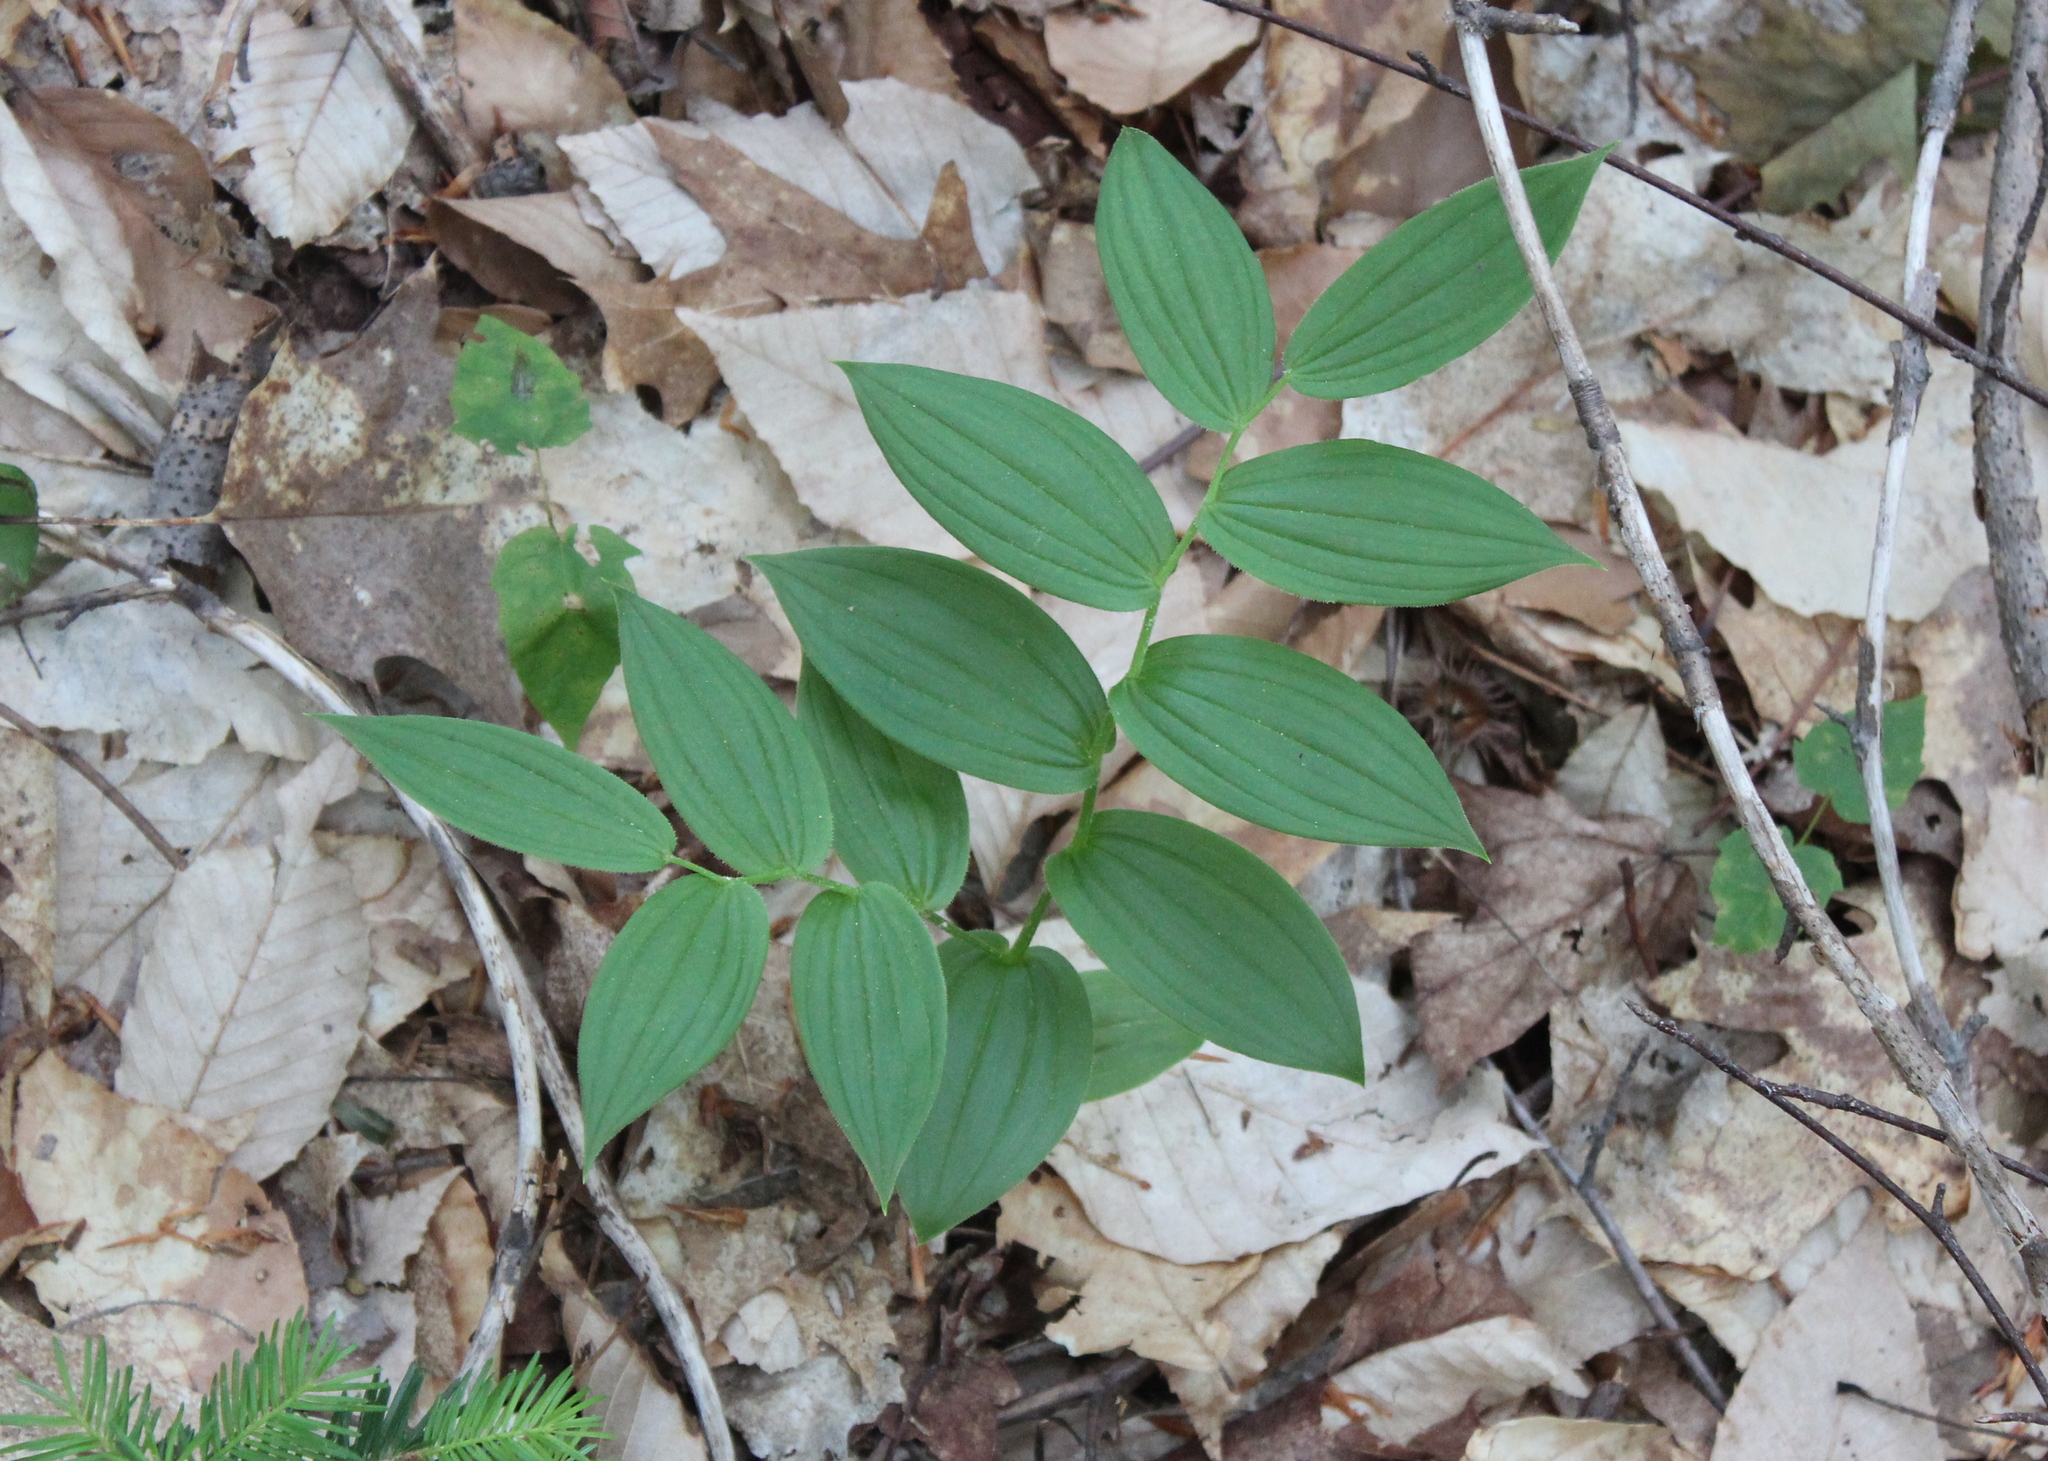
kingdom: Plantae
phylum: Tracheophyta
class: Liliopsida
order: Liliales
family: Liliaceae
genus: Streptopus
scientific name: Streptopus lanceolatus
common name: Rose mandarin
